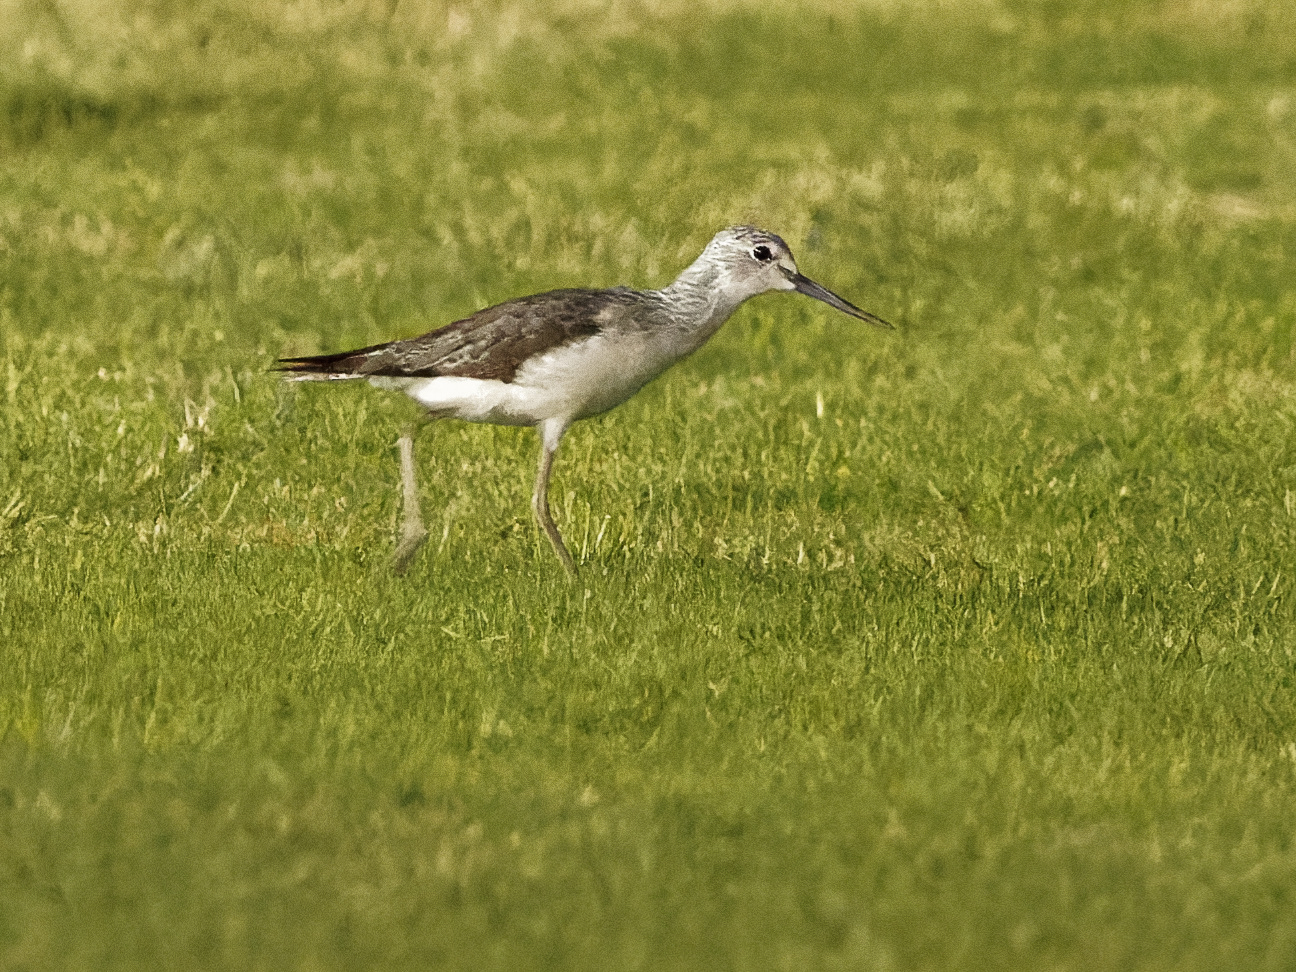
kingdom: Animalia
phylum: Chordata
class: Aves
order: Charadriiformes
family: Scolopacidae
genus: Tringa
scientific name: Tringa nebularia
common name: Common greenshank
